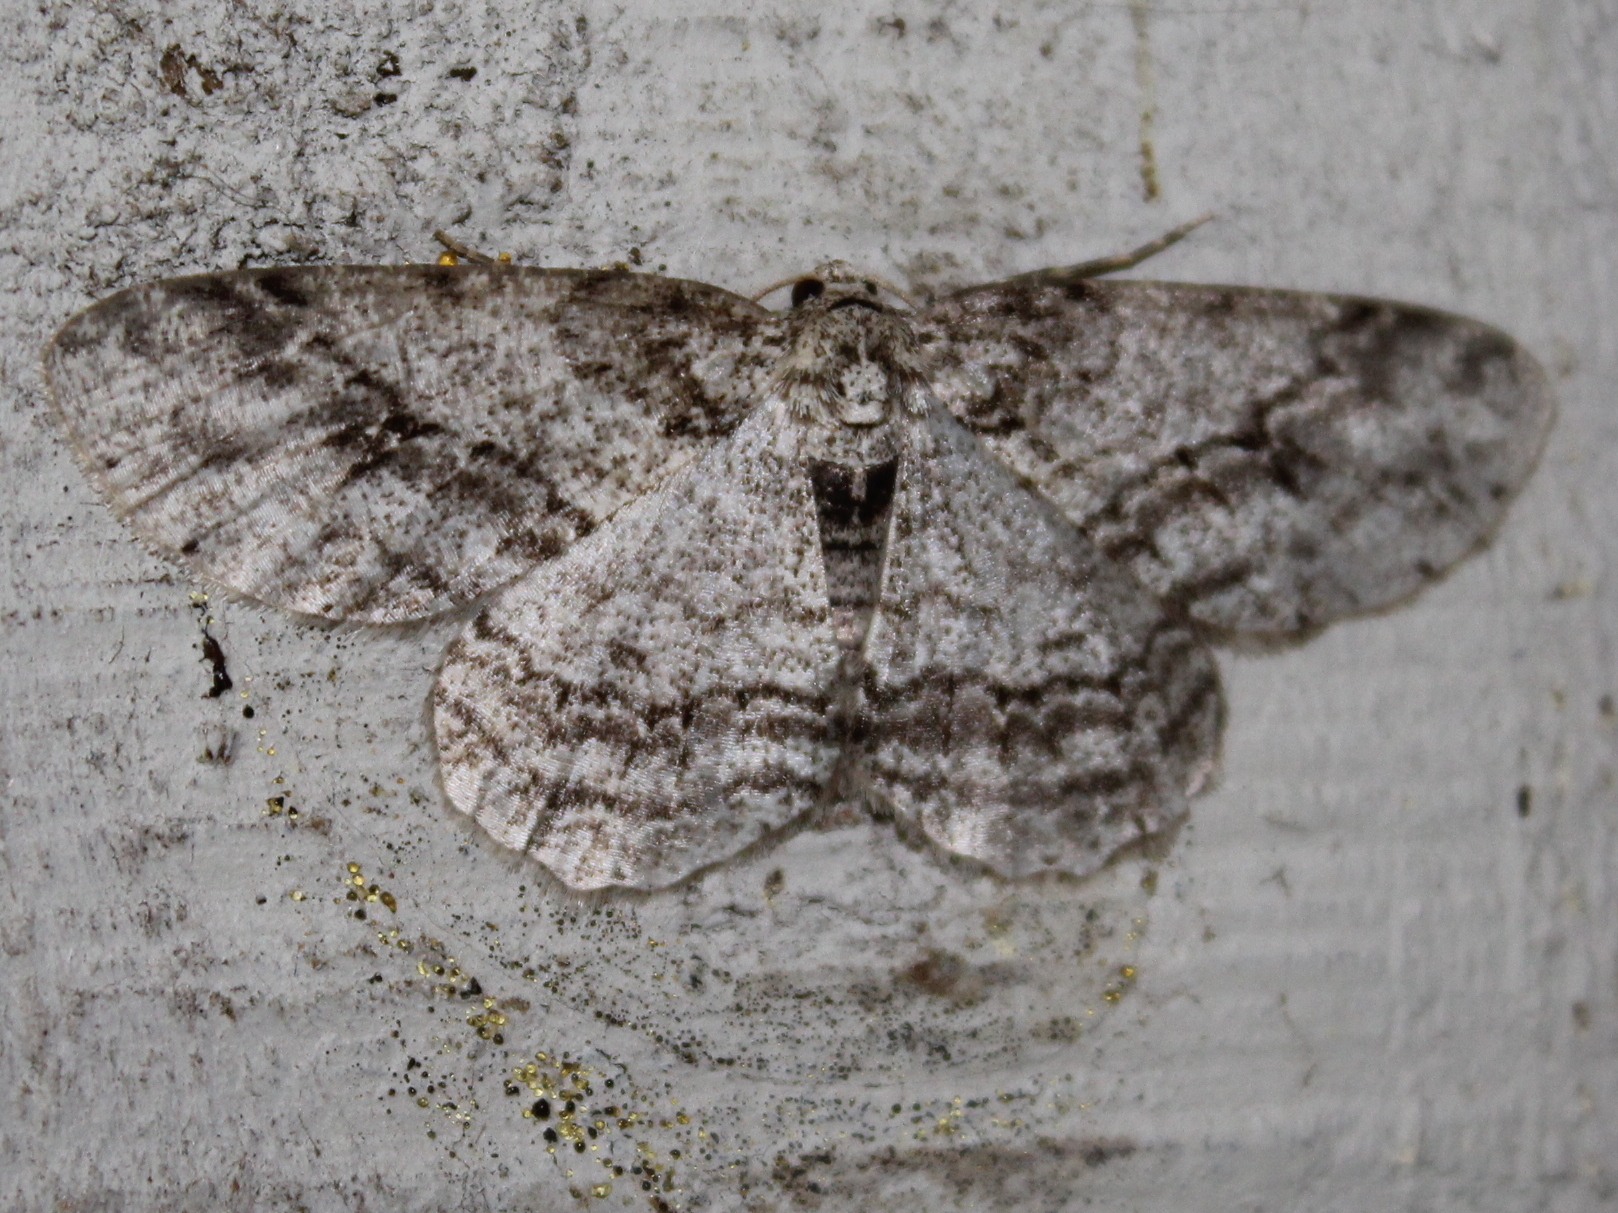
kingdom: Animalia
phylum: Arthropoda
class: Insecta
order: Lepidoptera
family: Geometridae
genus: Ectropis
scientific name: Ectropis crepuscularia
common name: Engrailed
